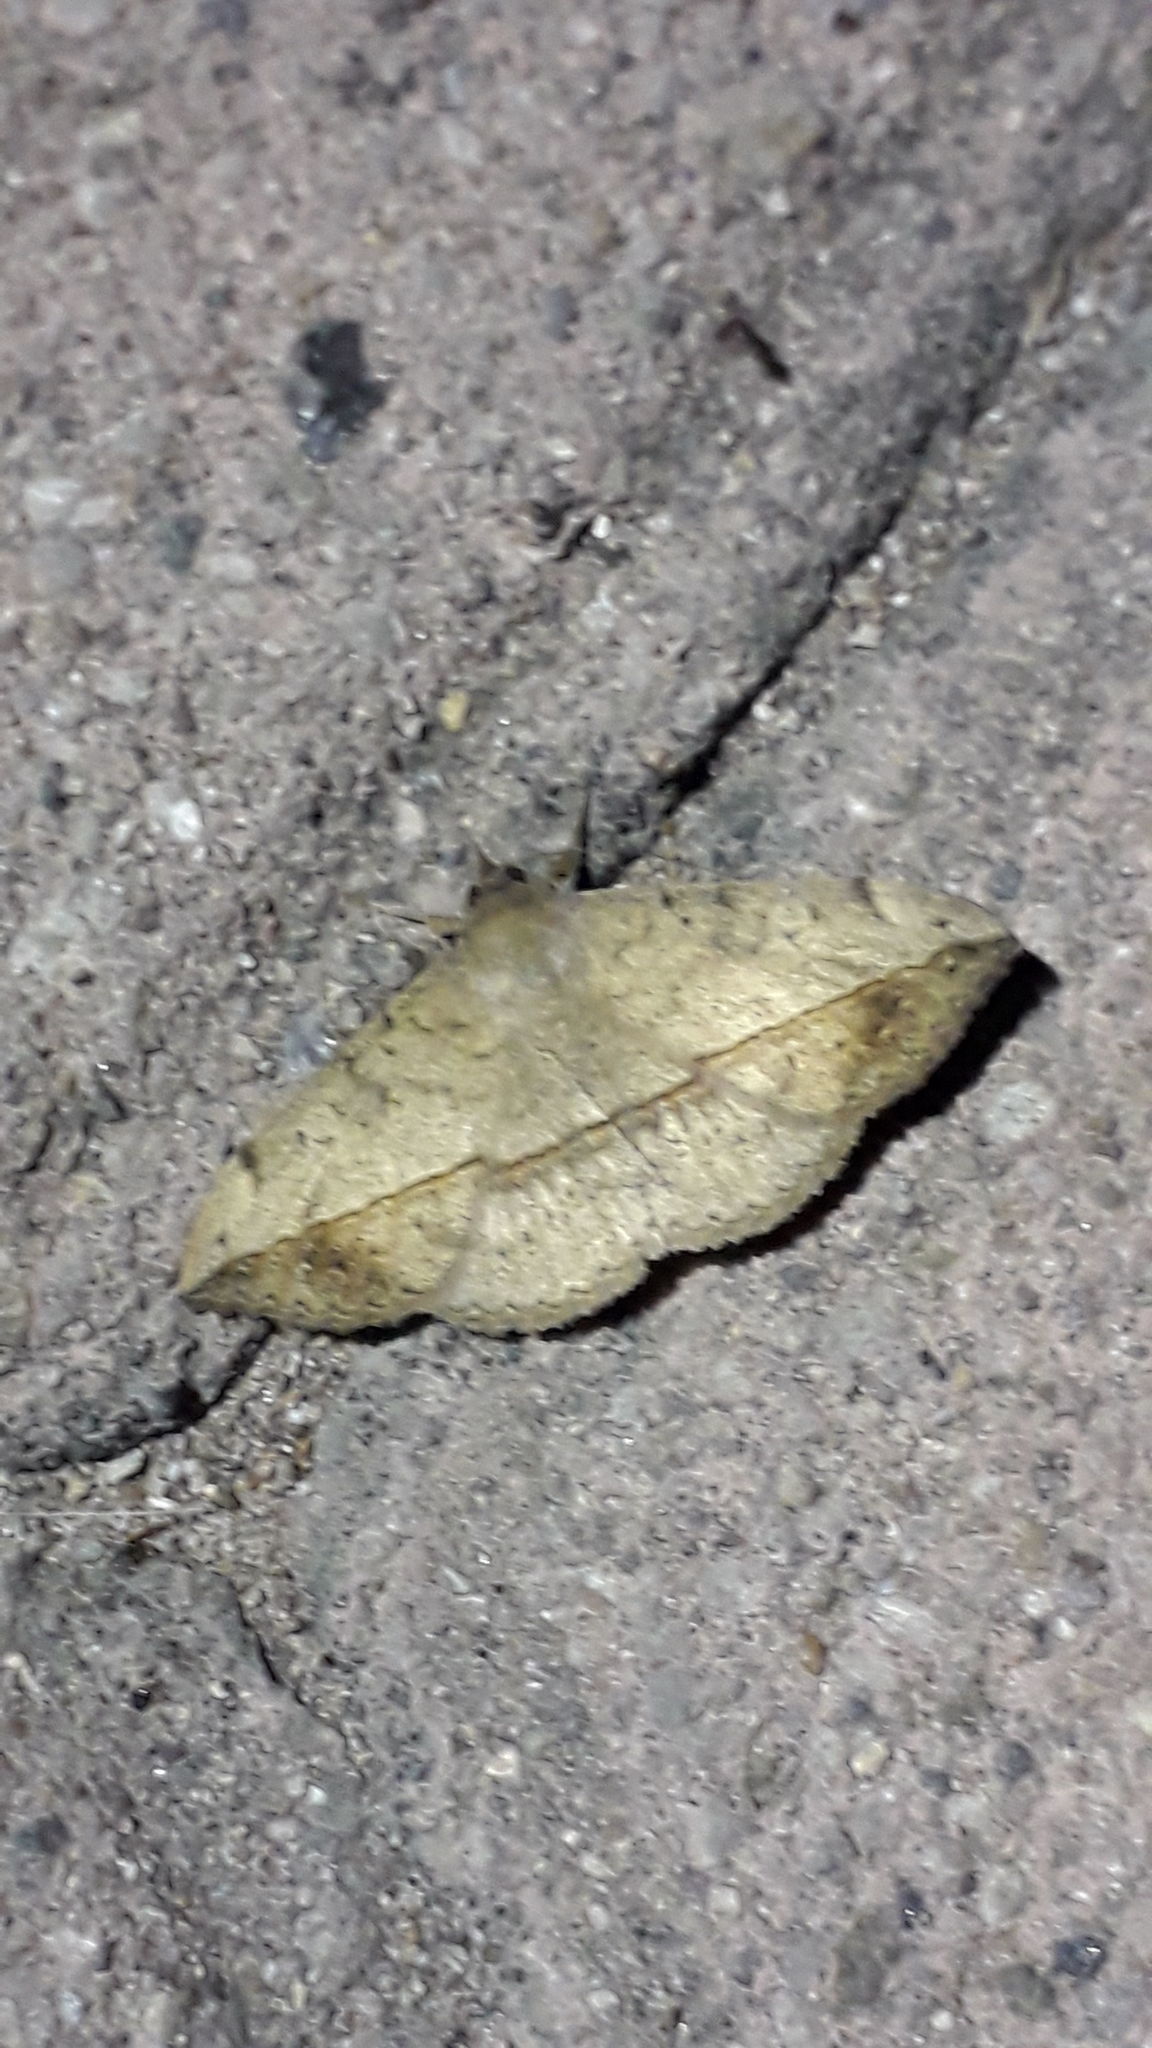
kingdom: Animalia
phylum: Arthropoda
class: Insecta
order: Lepidoptera
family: Erebidae
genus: Anticarsia
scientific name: Anticarsia gemmatalis
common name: Cutworm moth
